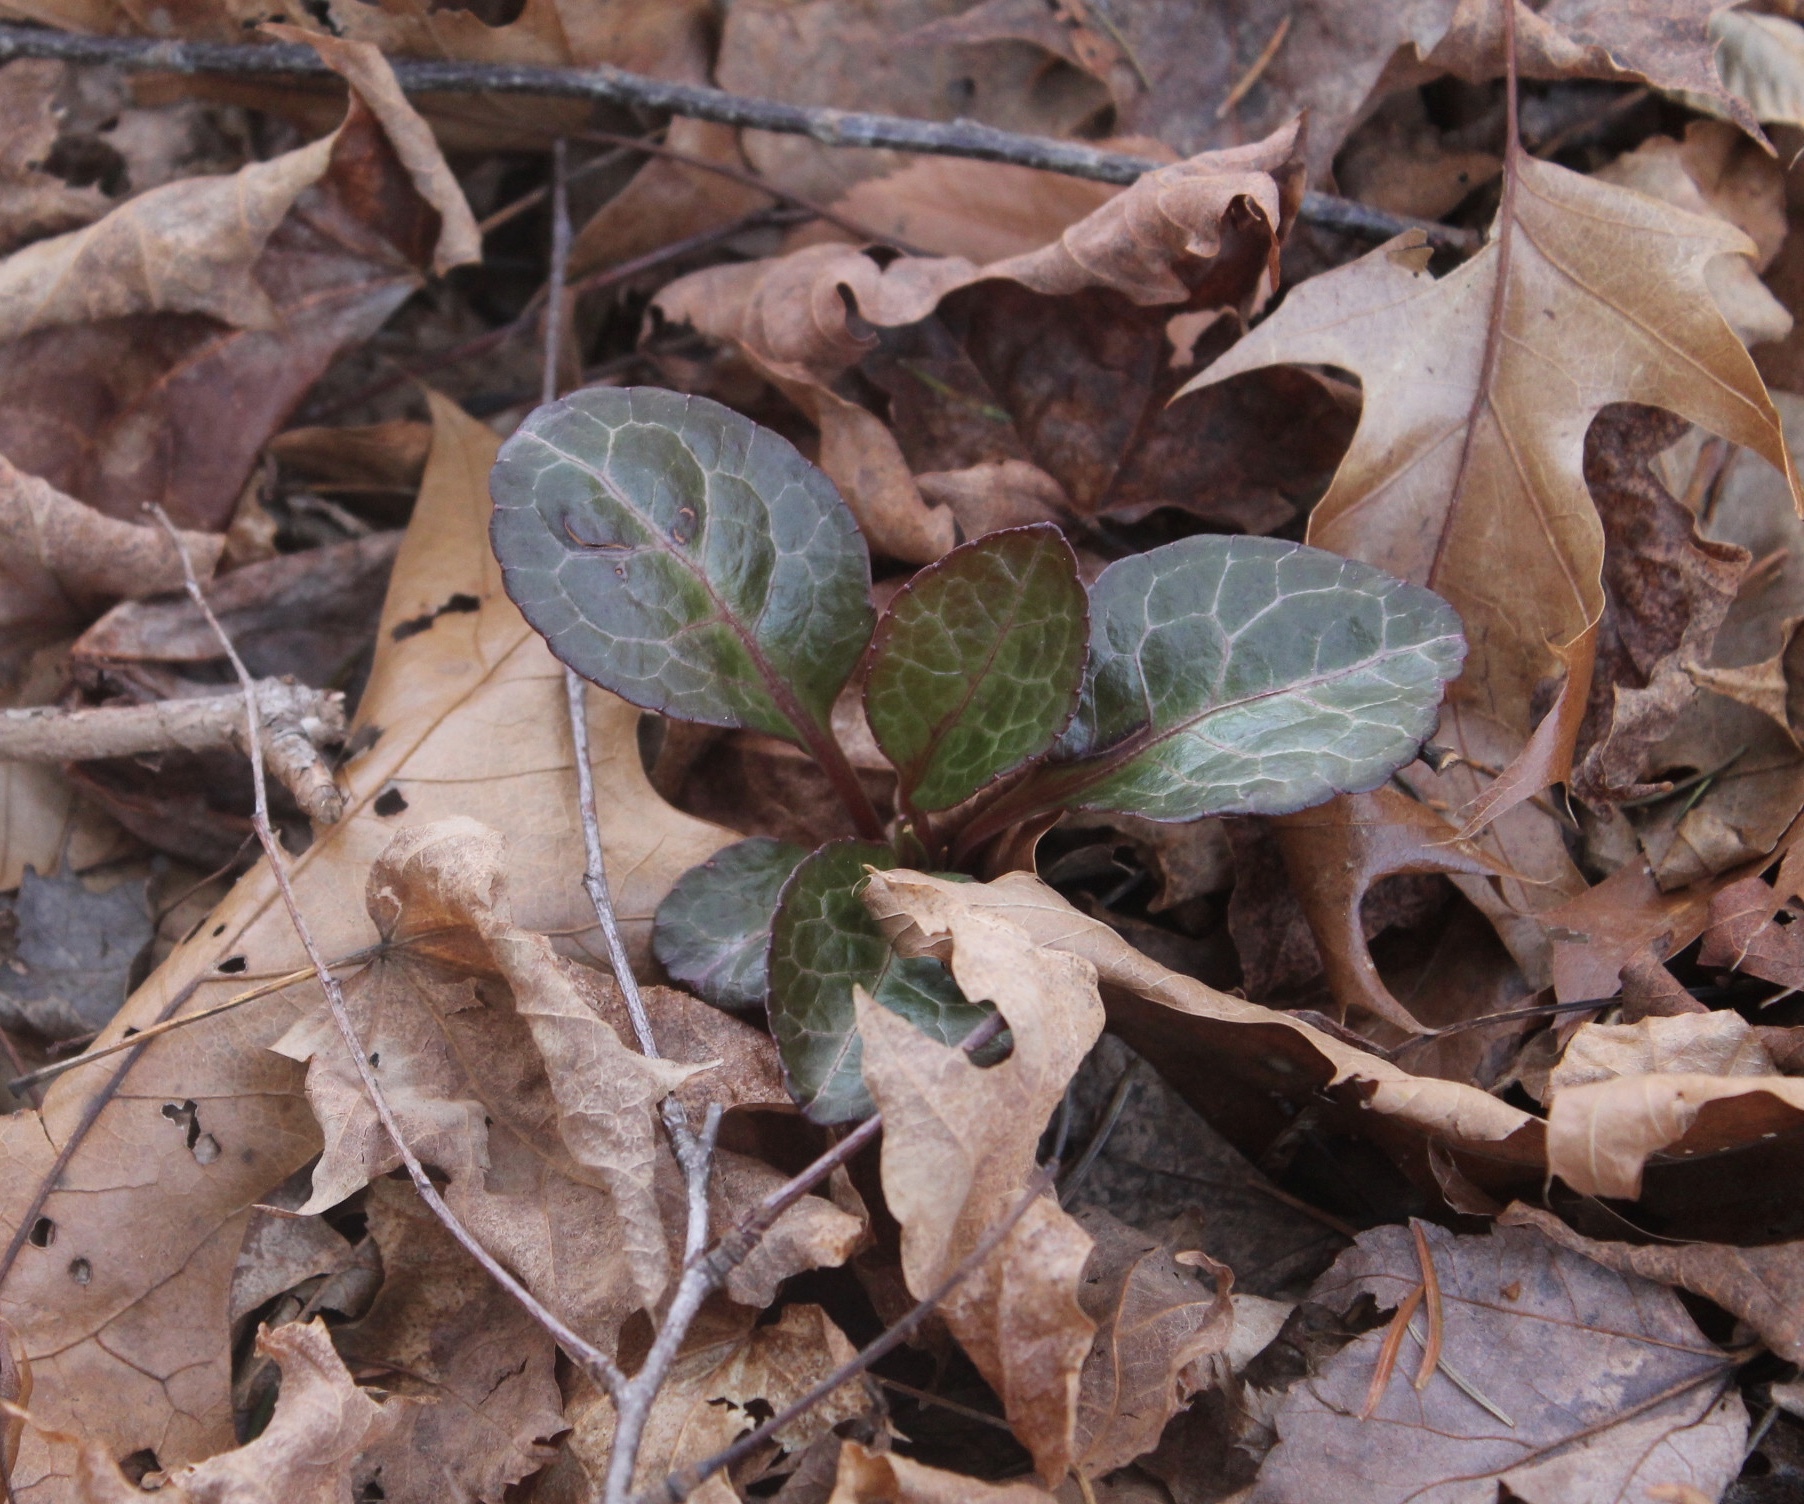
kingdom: Plantae
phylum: Tracheophyta
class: Magnoliopsida
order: Ericales
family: Ericaceae
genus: Pyrola
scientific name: Pyrola americana
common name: American wintergreen
